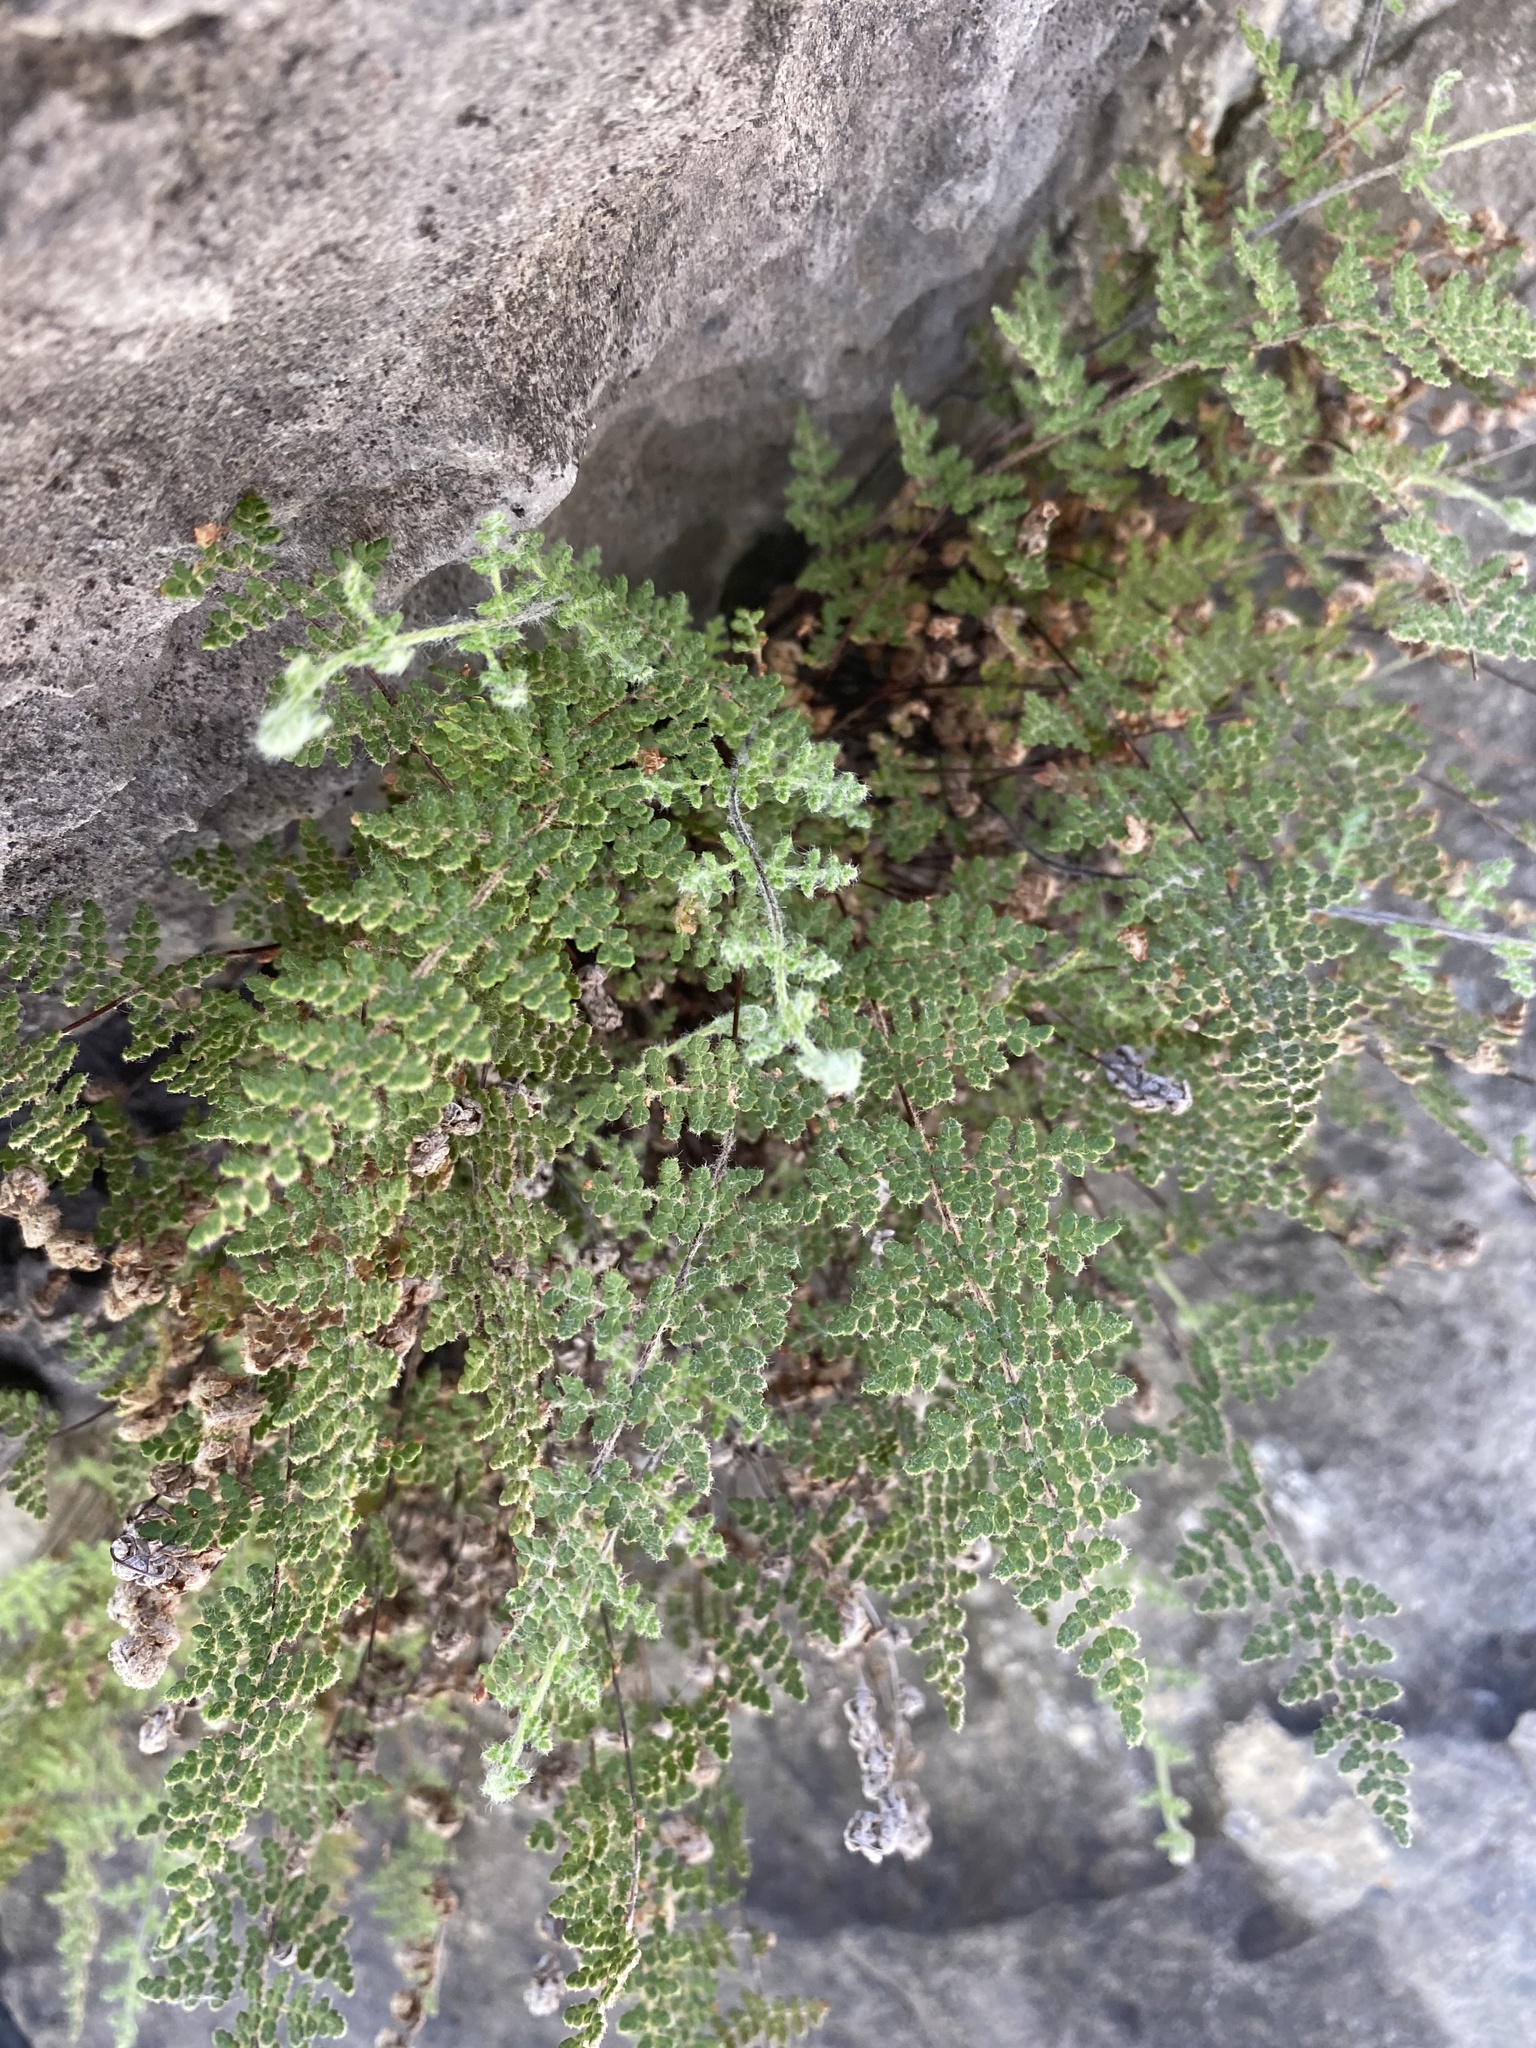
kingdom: Plantae
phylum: Tracheophyta
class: Polypodiopsida
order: Polypodiales
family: Pteridaceae
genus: Myriopteris
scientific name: Myriopteris gracilis
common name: Fee's lip fern
